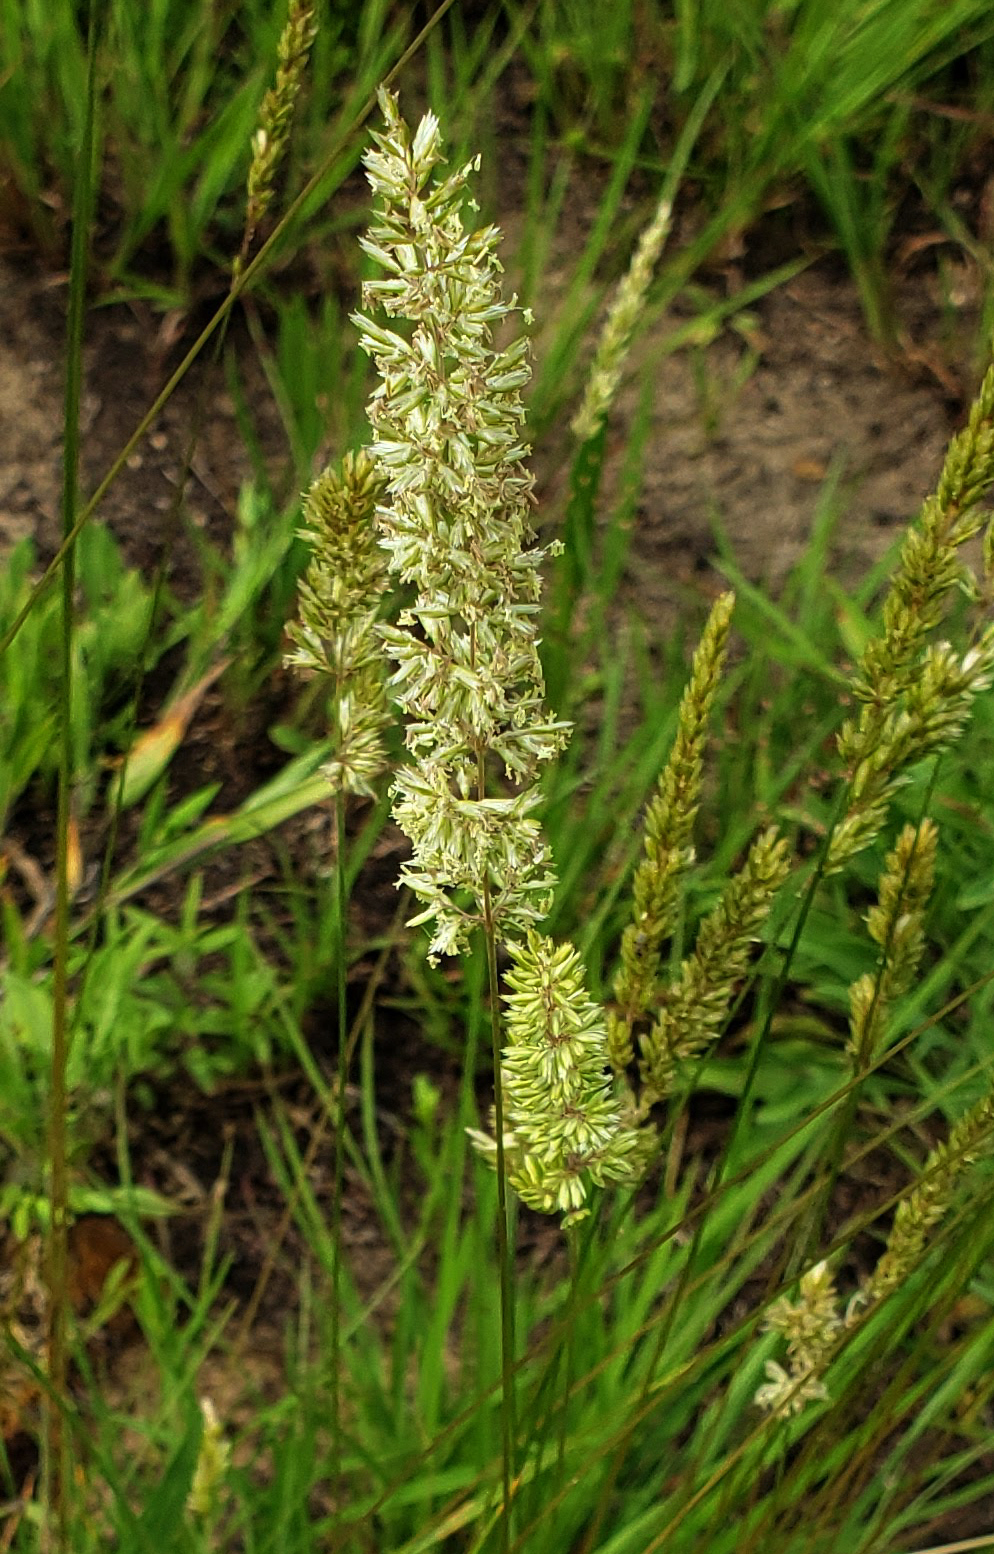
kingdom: Plantae
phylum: Tracheophyta
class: Liliopsida
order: Poales
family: Poaceae
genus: Koeleria
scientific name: Koeleria macrantha
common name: Crested hair-grass
